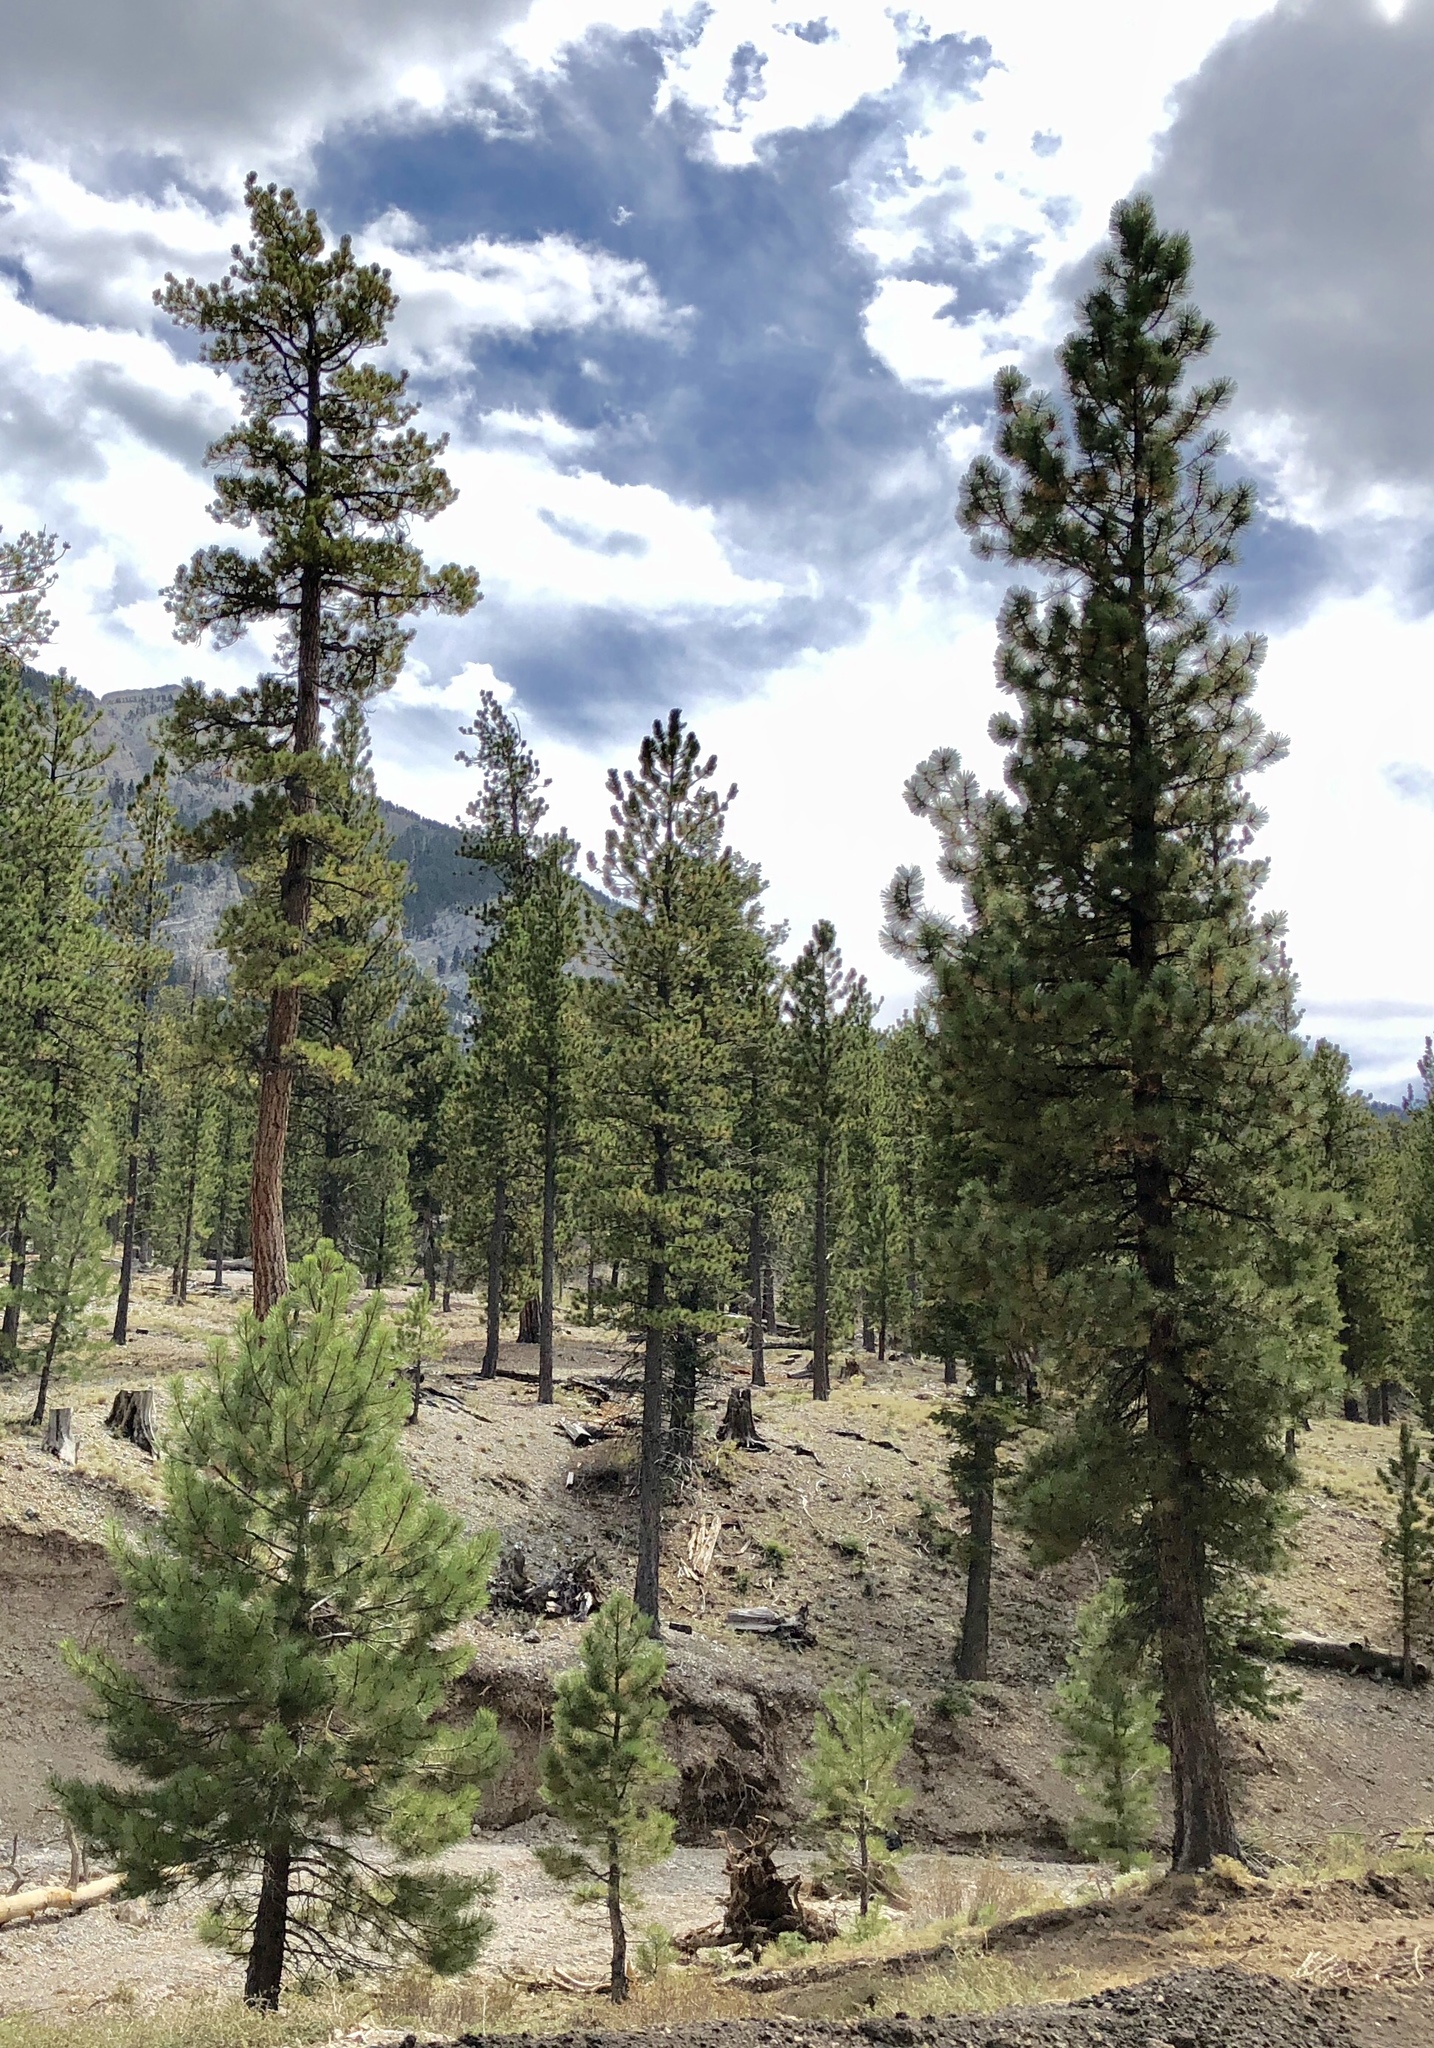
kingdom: Plantae
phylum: Tracheophyta
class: Pinopsida
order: Pinales
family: Pinaceae
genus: Pinus
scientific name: Pinus ponderosa
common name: Western yellow-pine
